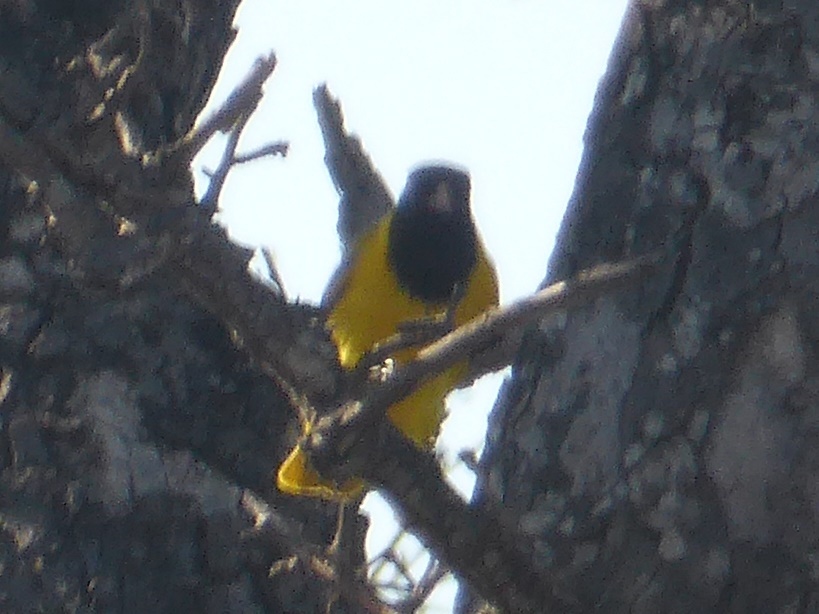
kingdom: Animalia
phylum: Chordata
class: Aves
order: Passeriformes
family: Oriolidae
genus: Oriolus
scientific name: Oriolus larvatus
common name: Black-headed oriole
